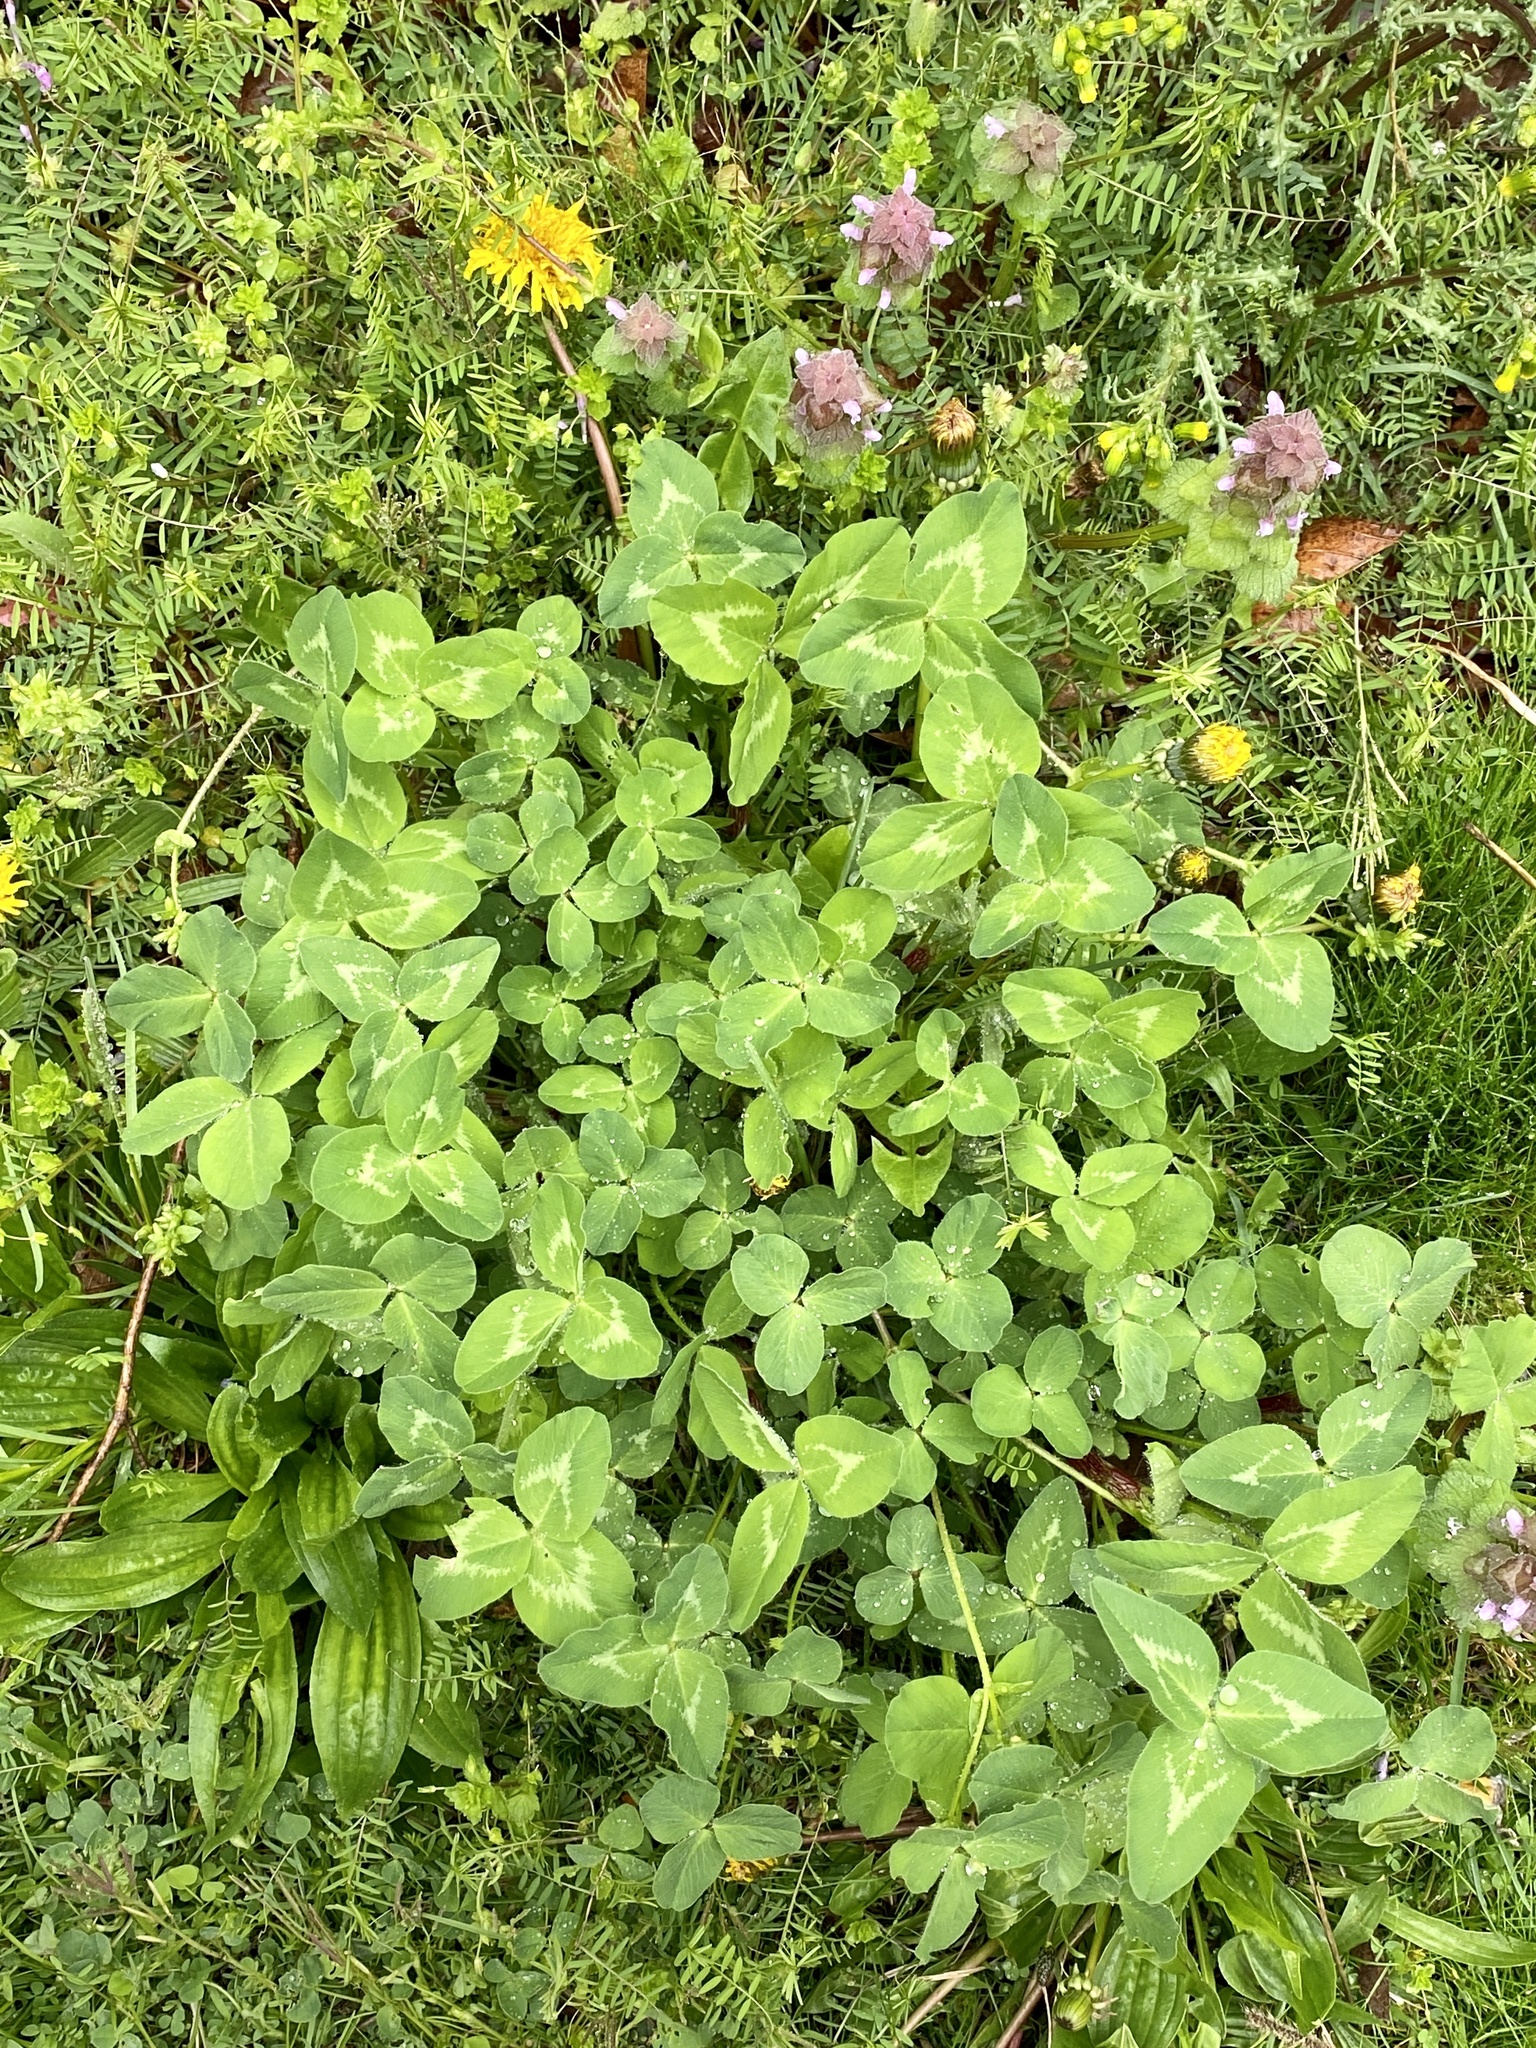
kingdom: Plantae
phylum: Tracheophyta
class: Magnoliopsida
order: Fabales
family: Fabaceae
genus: Trifolium
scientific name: Trifolium pratense
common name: Red clover
